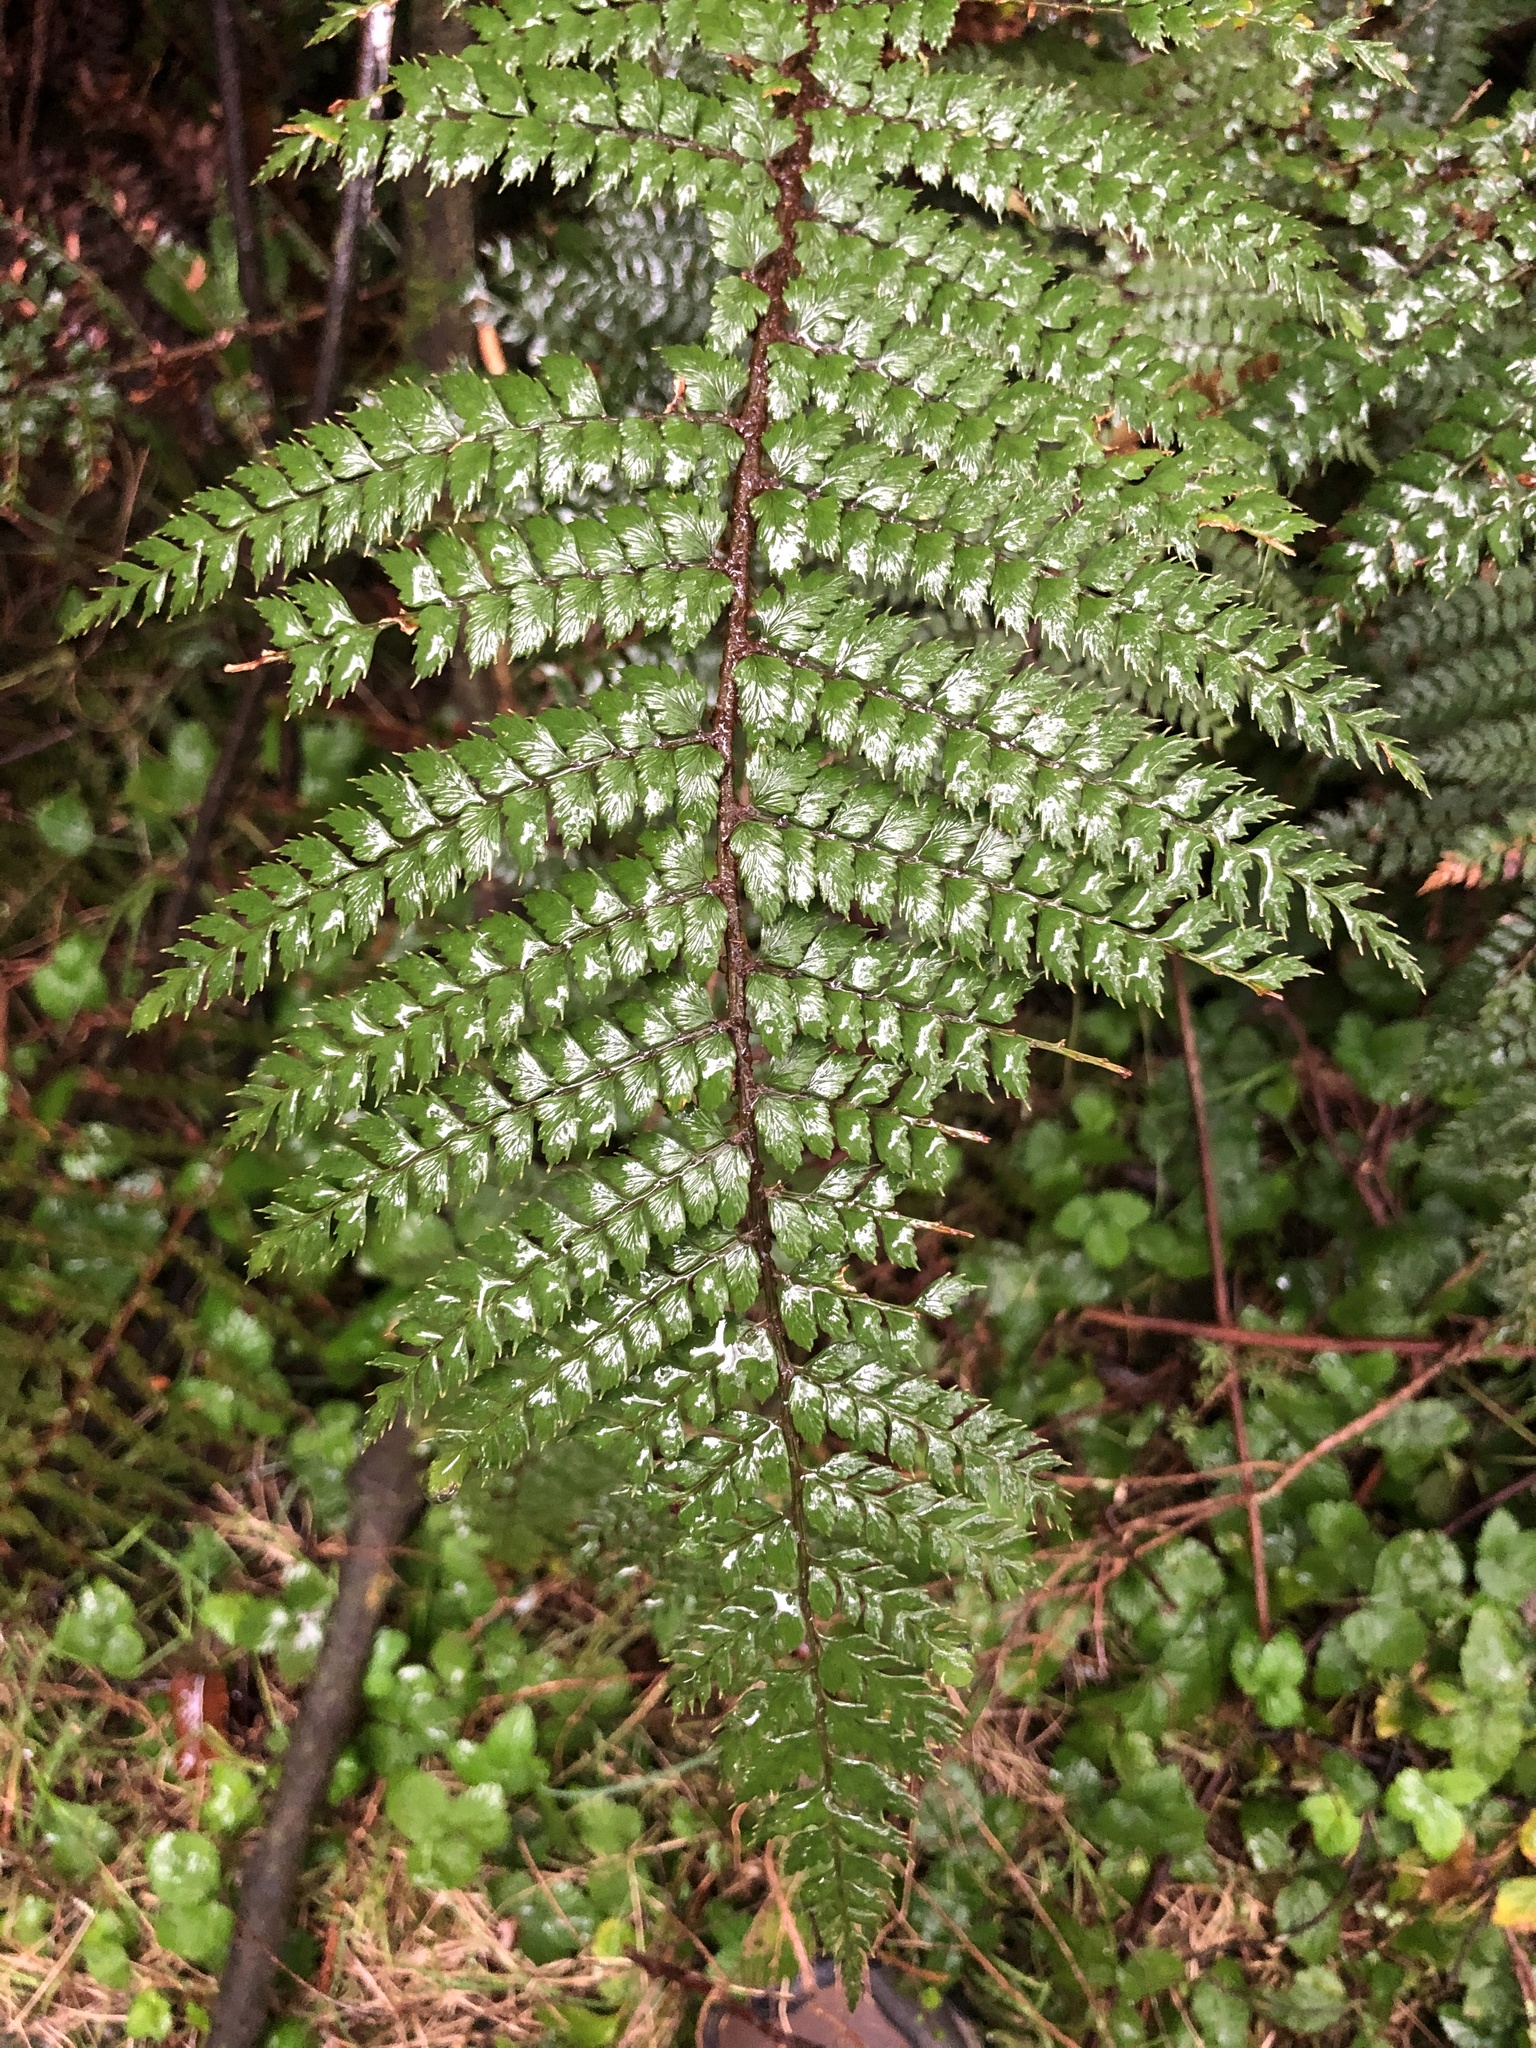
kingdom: Plantae
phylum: Tracheophyta
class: Polypodiopsida
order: Polypodiales
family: Dryopteridaceae
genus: Polystichum
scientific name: Polystichum vestitum
